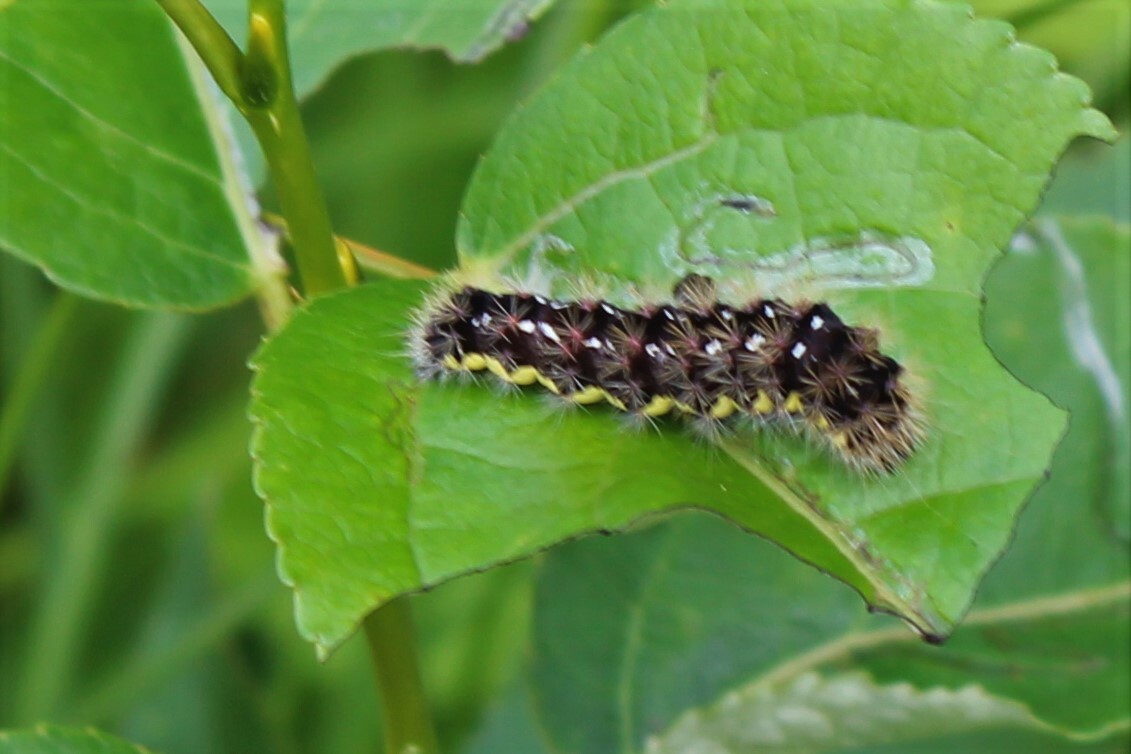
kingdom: Animalia
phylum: Arthropoda
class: Insecta
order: Lepidoptera
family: Noctuidae
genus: Acronicta
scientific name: Acronicta oblinita
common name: Smeared dagger
